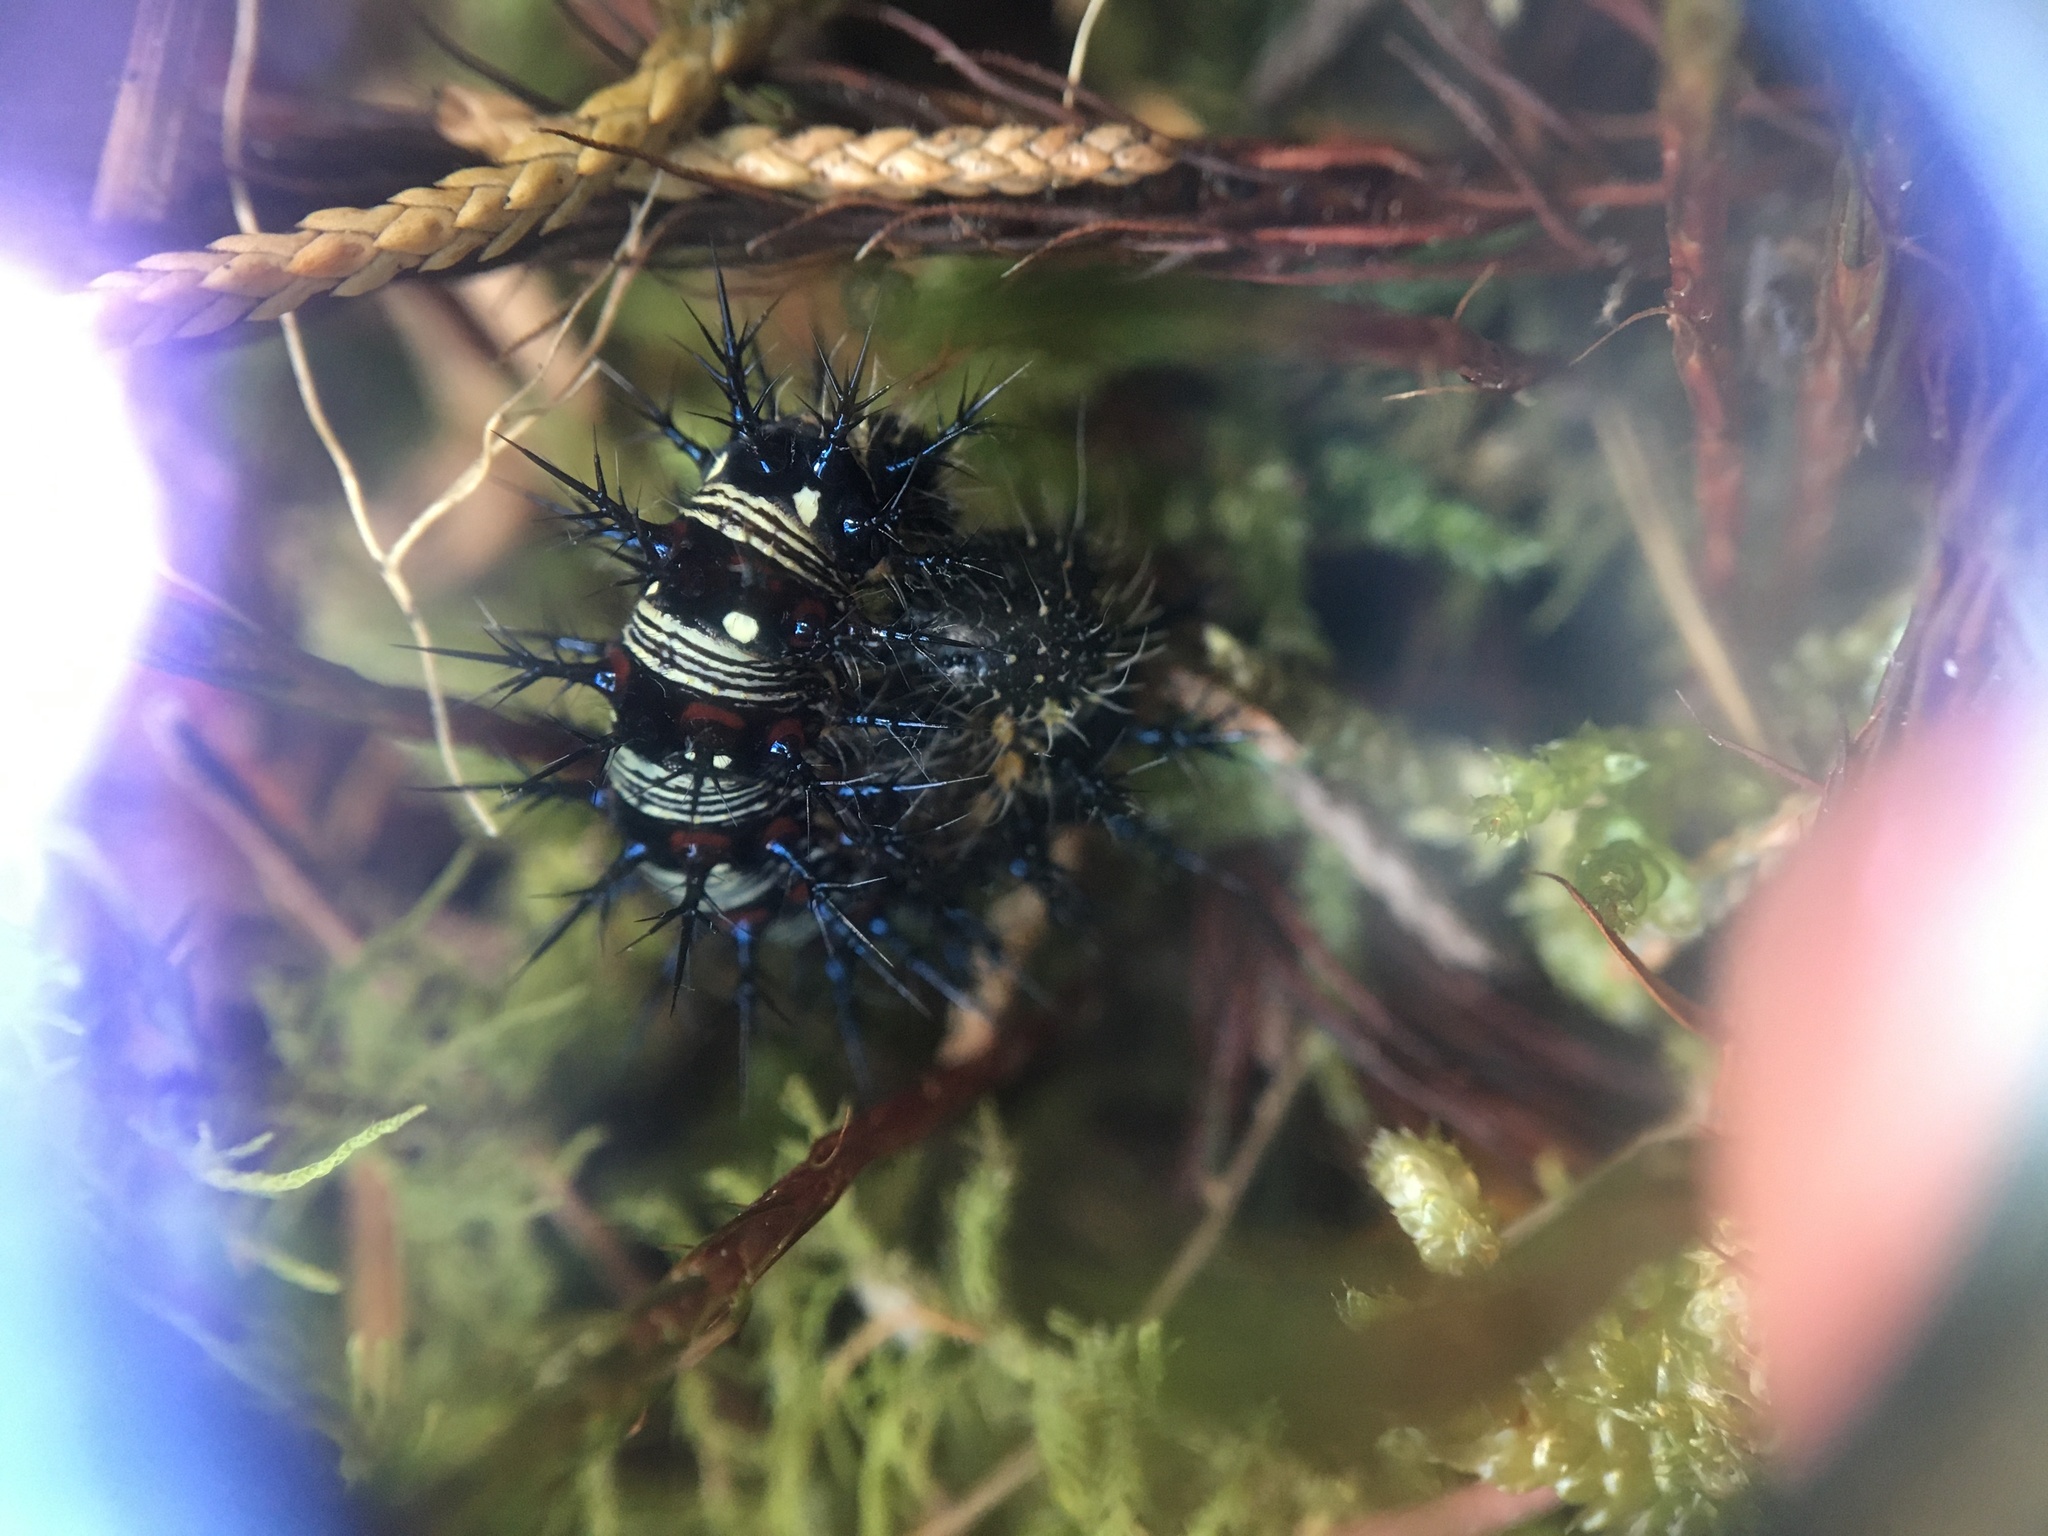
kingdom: Animalia
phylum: Arthropoda
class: Insecta
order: Lepidoptera
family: Nymphalidae
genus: Vanessa
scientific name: Vanessa virginiensis
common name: American lady
